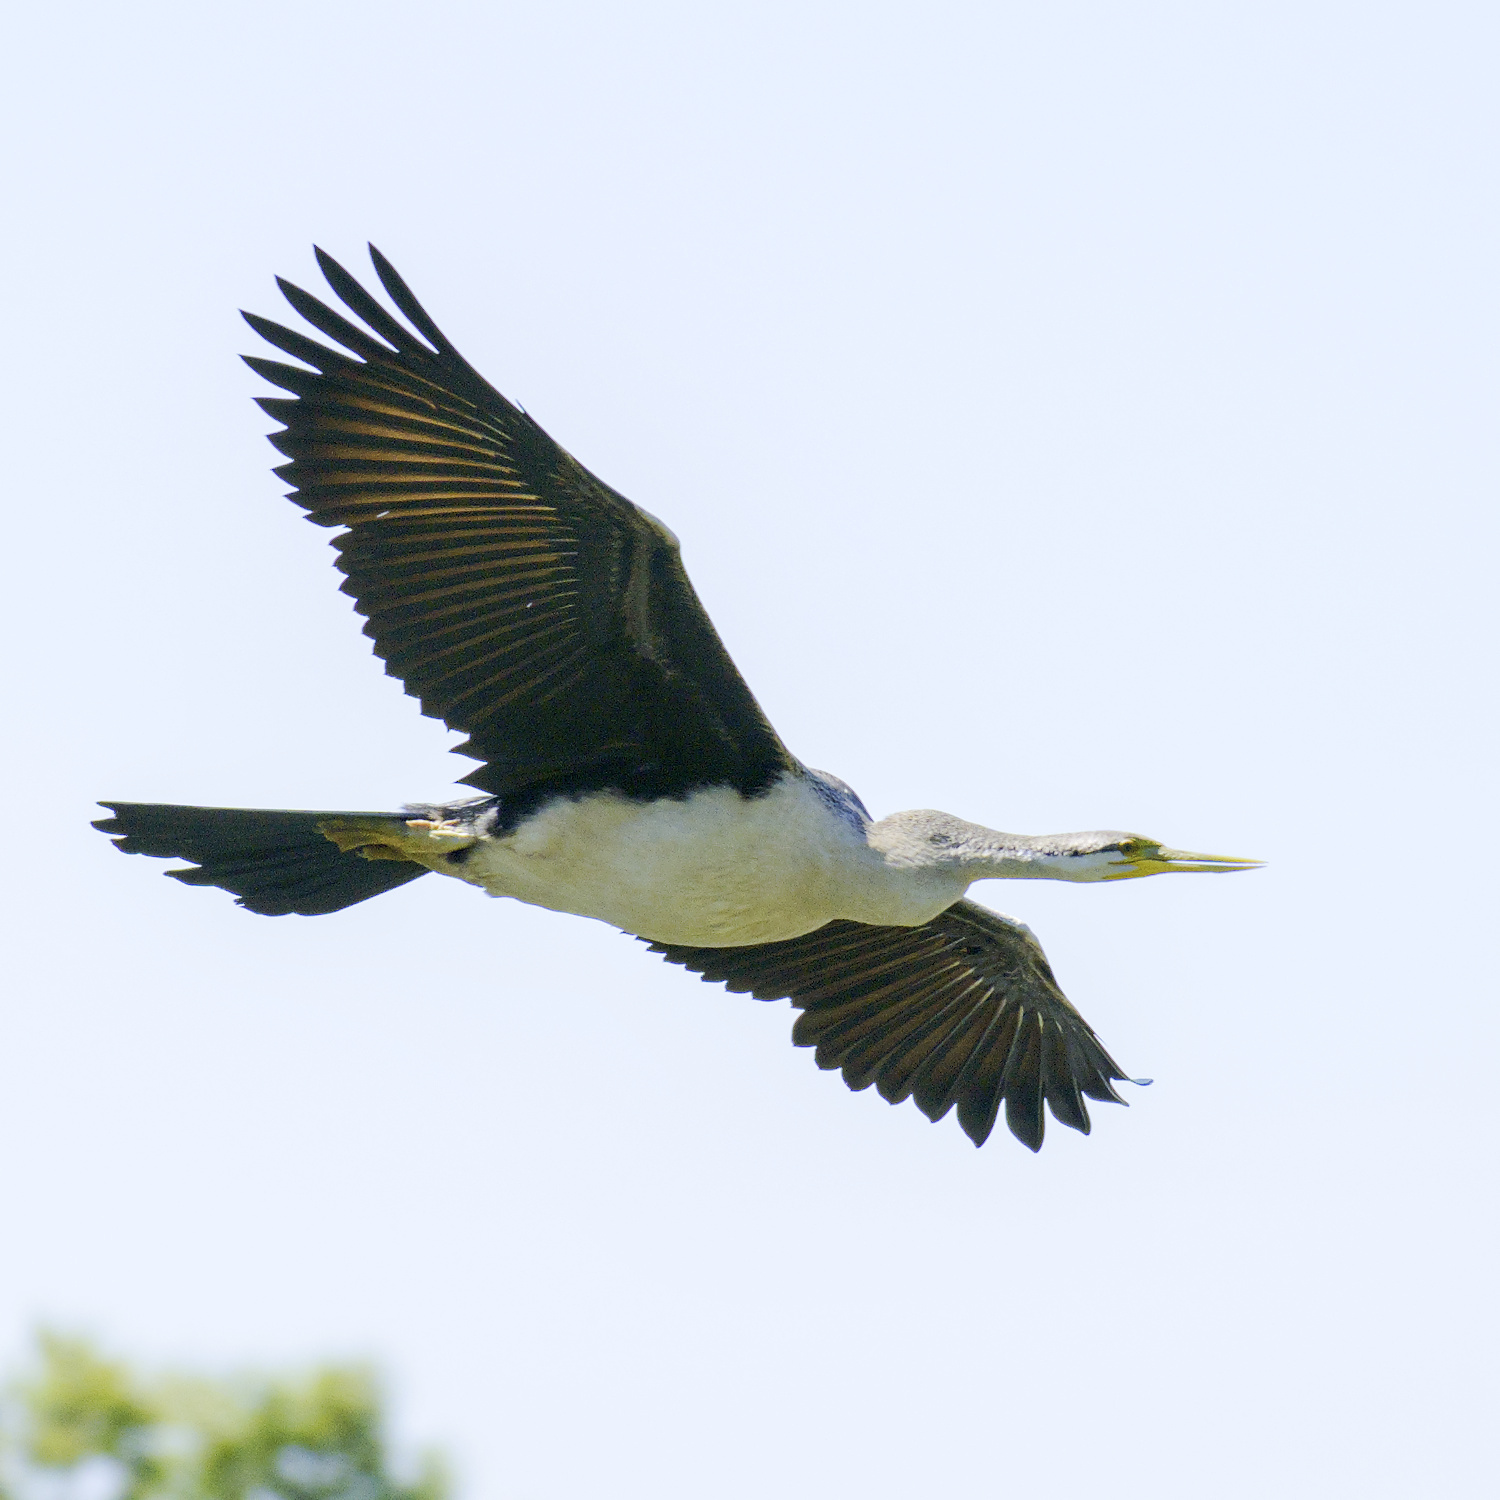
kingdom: Animalia
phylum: Chordata
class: Aves
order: Suliformes
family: Anhingidae
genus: Anhinga
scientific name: Anhinga novaehollandiae
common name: Australasian darter
